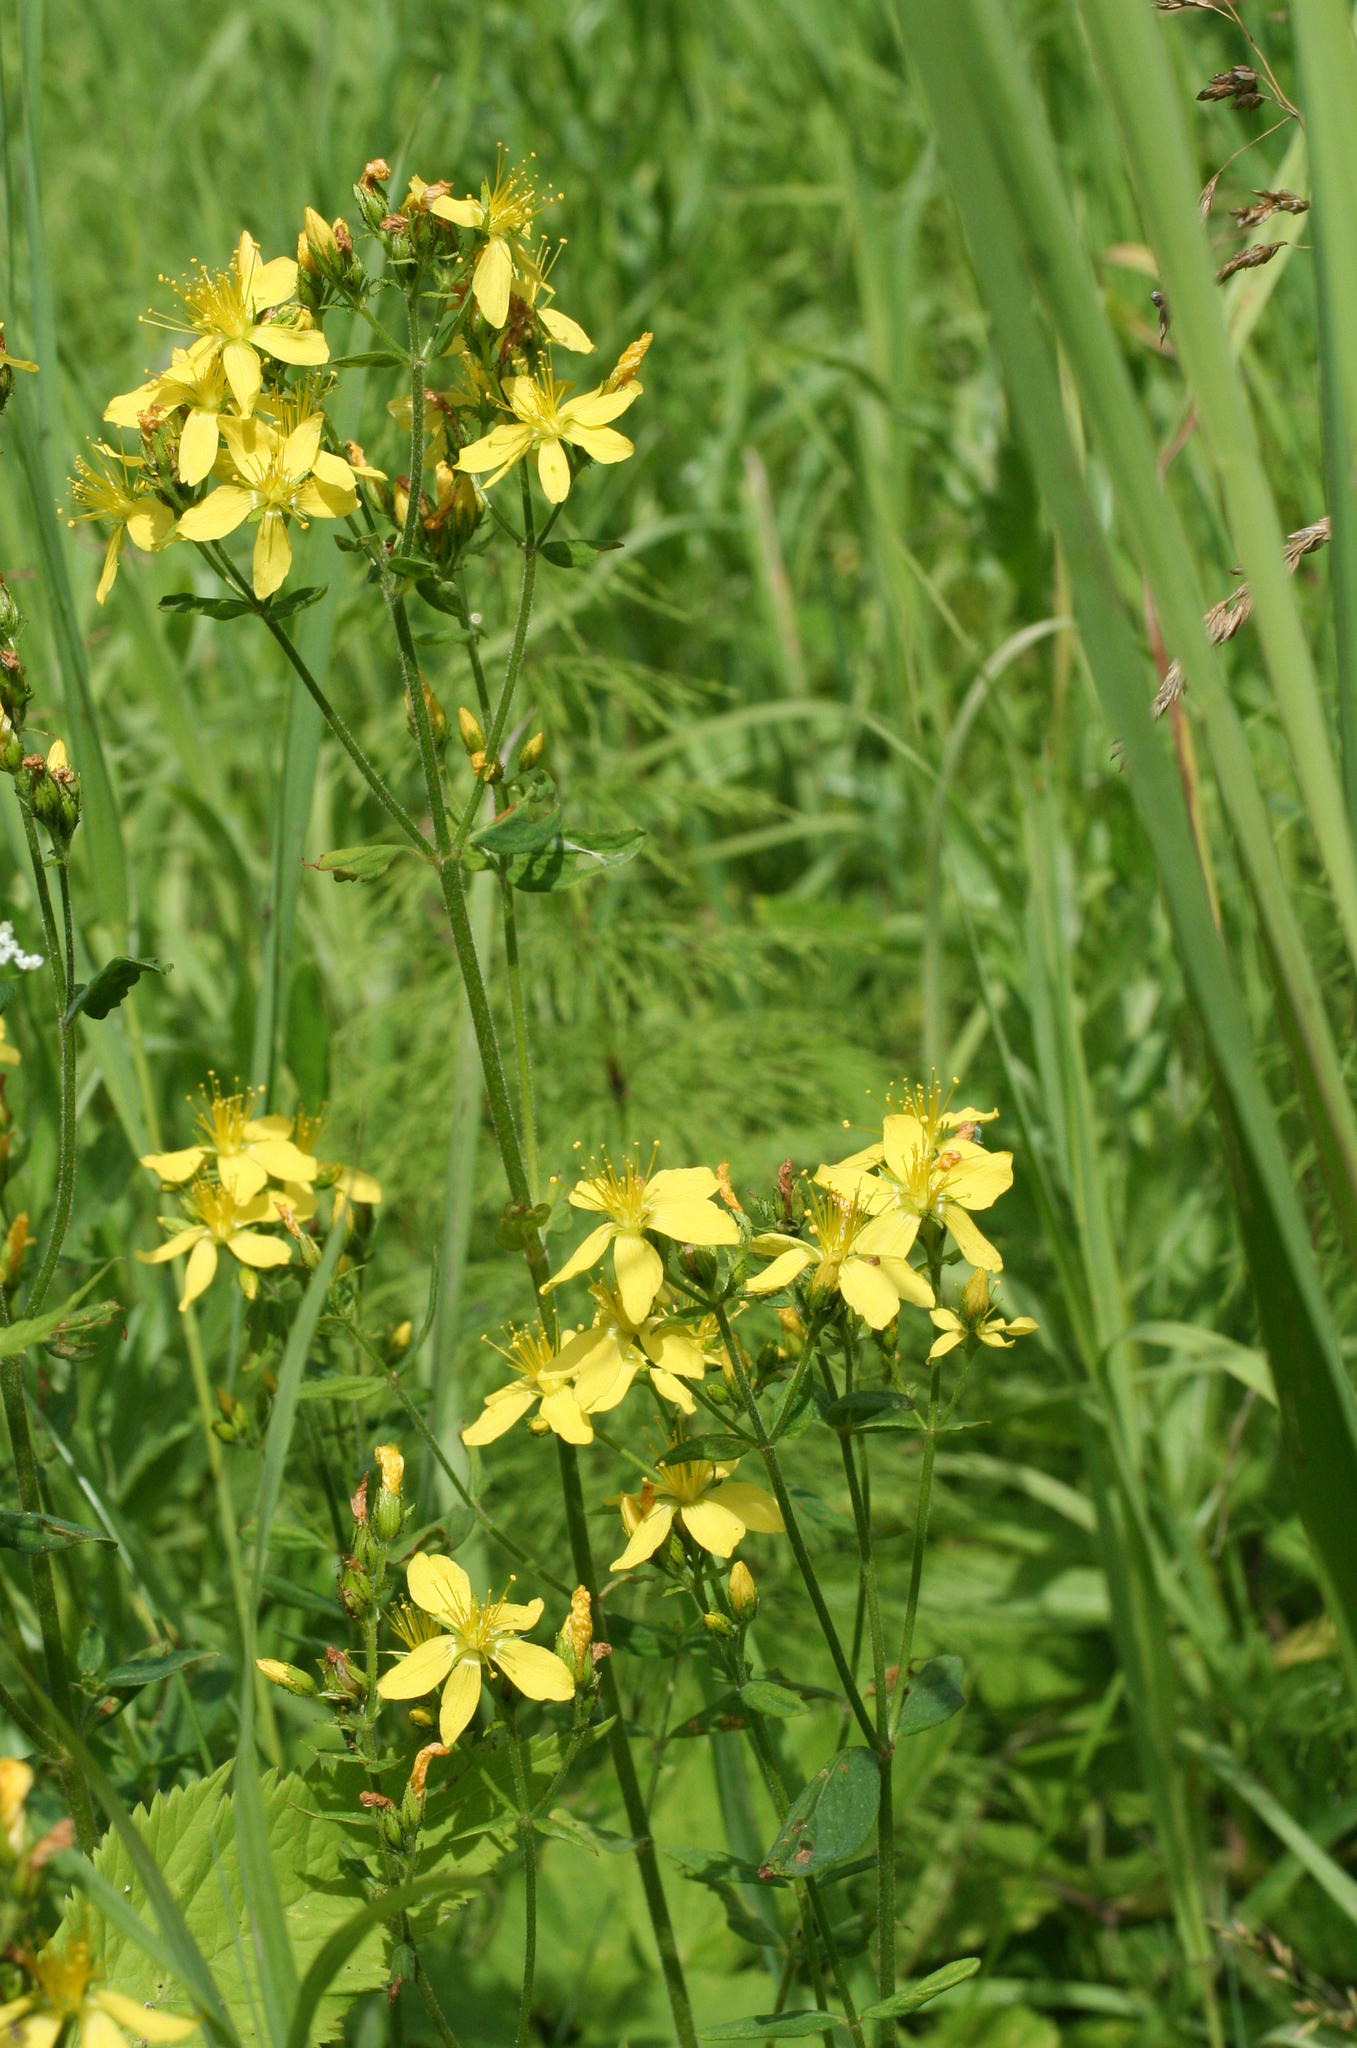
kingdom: Plantae
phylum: Tracheophyta
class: Magnoliopsida
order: Malpighiales
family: Hypericaceae
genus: Hypericum
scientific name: Hypericum hirsutum
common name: Hairy st. john's-wort
